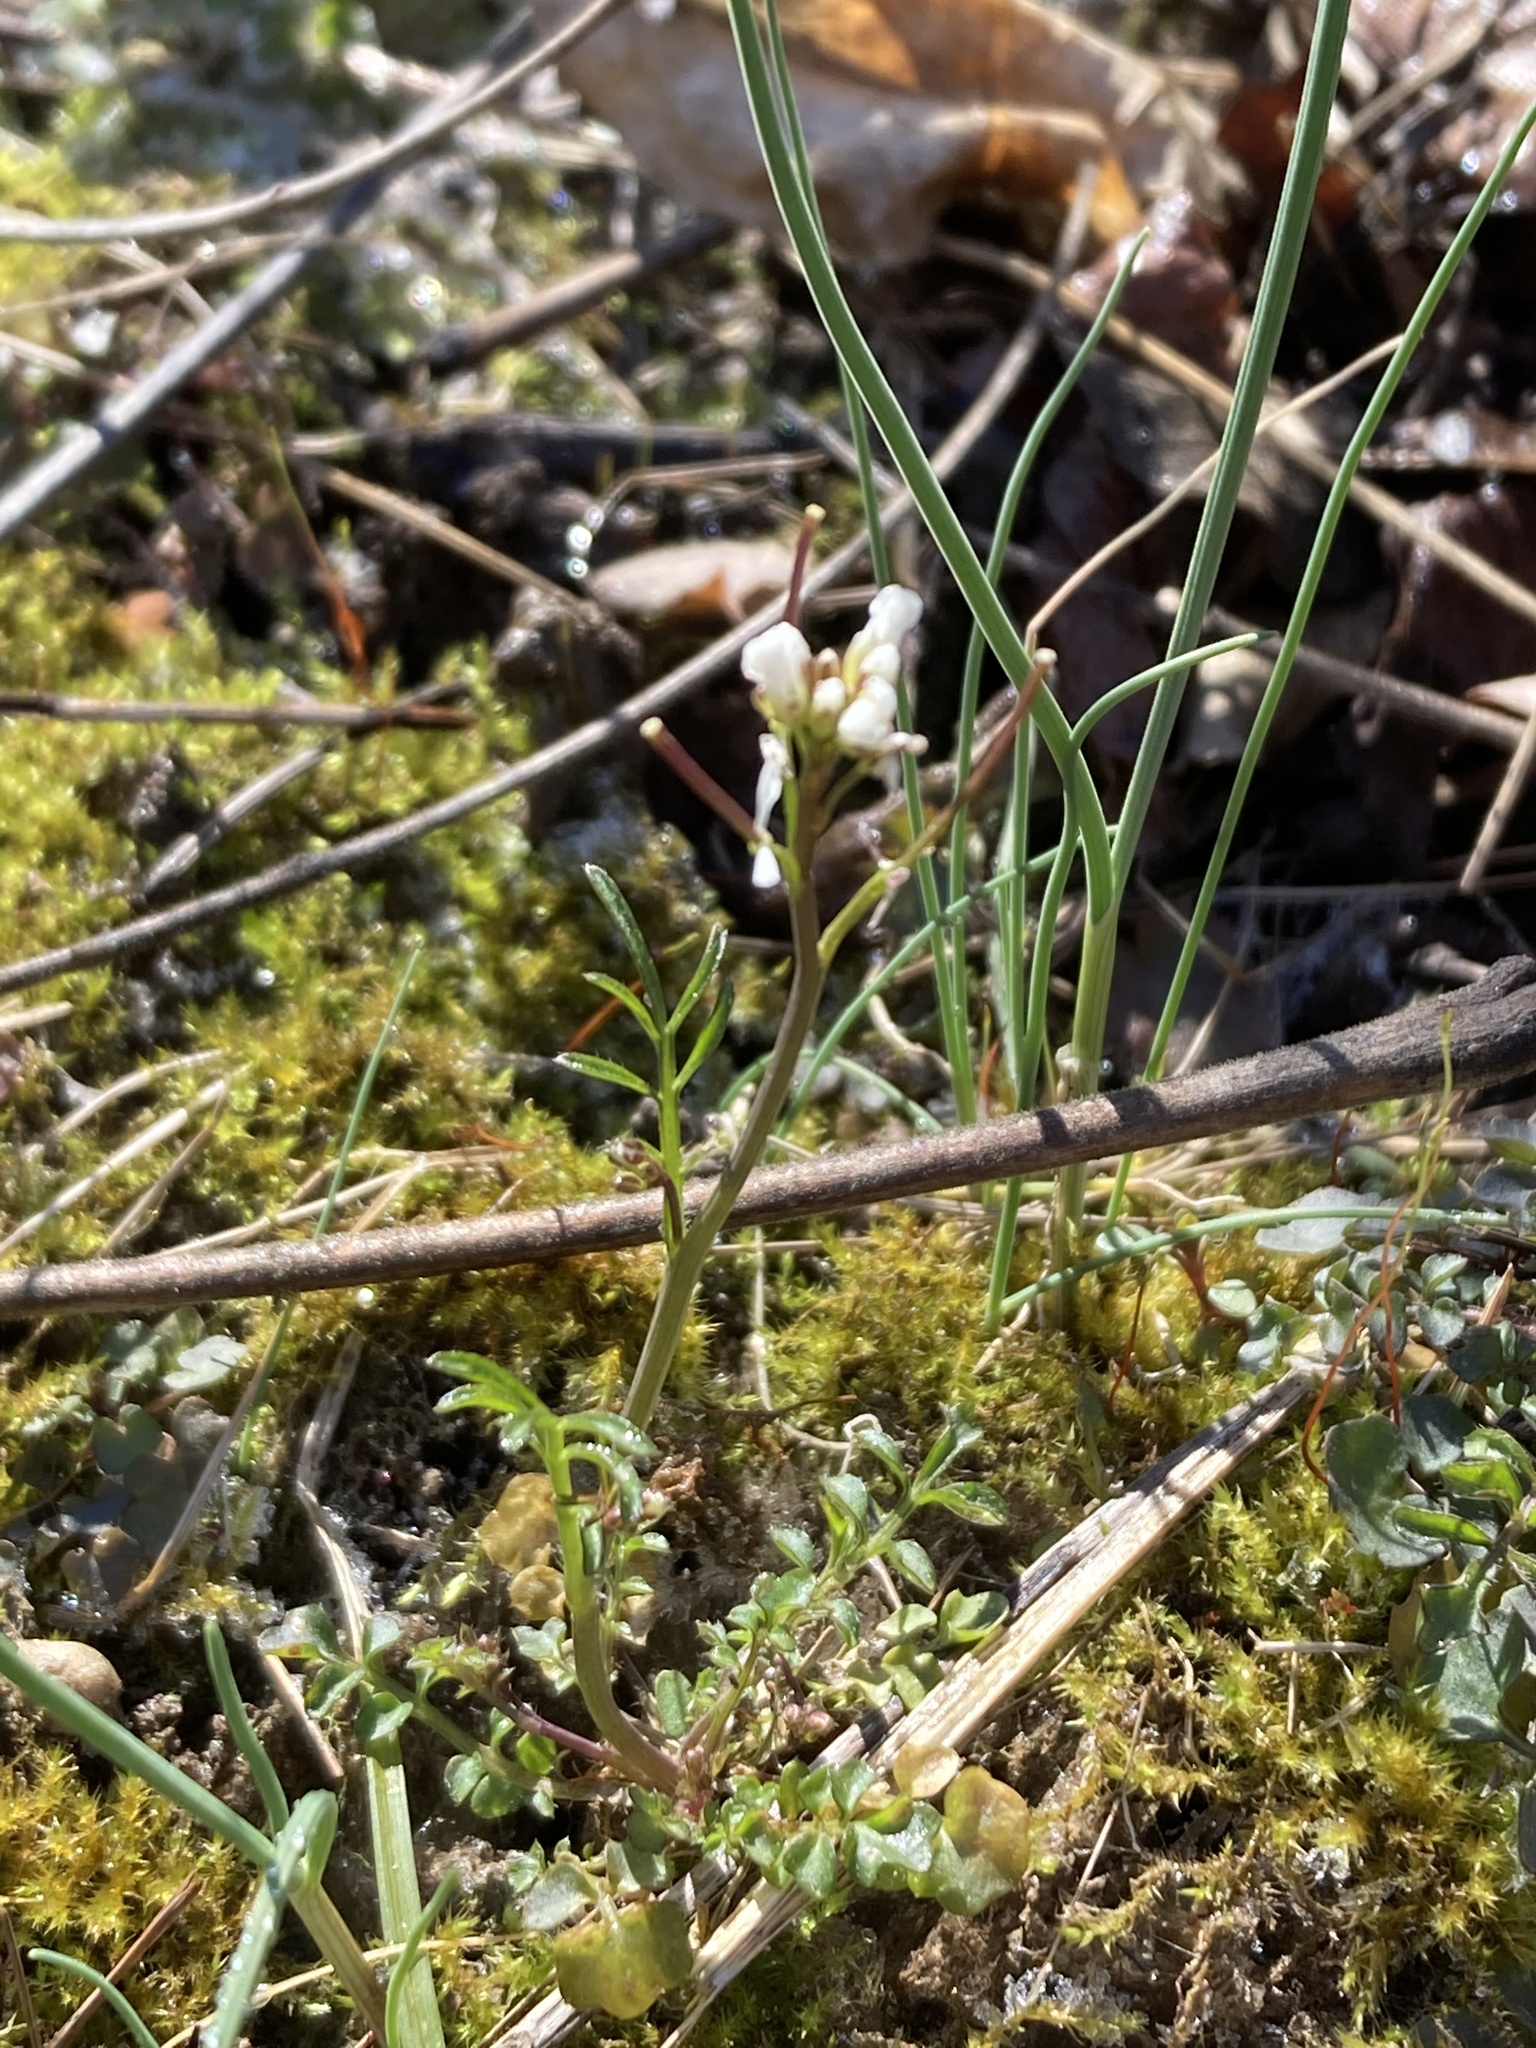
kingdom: Plantae
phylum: Tracheophyta
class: Magnoliopsida
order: Brassicales
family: Brassicaceae
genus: Cardamine
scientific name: Cardamine hirsuta
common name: Hairy bittercress
